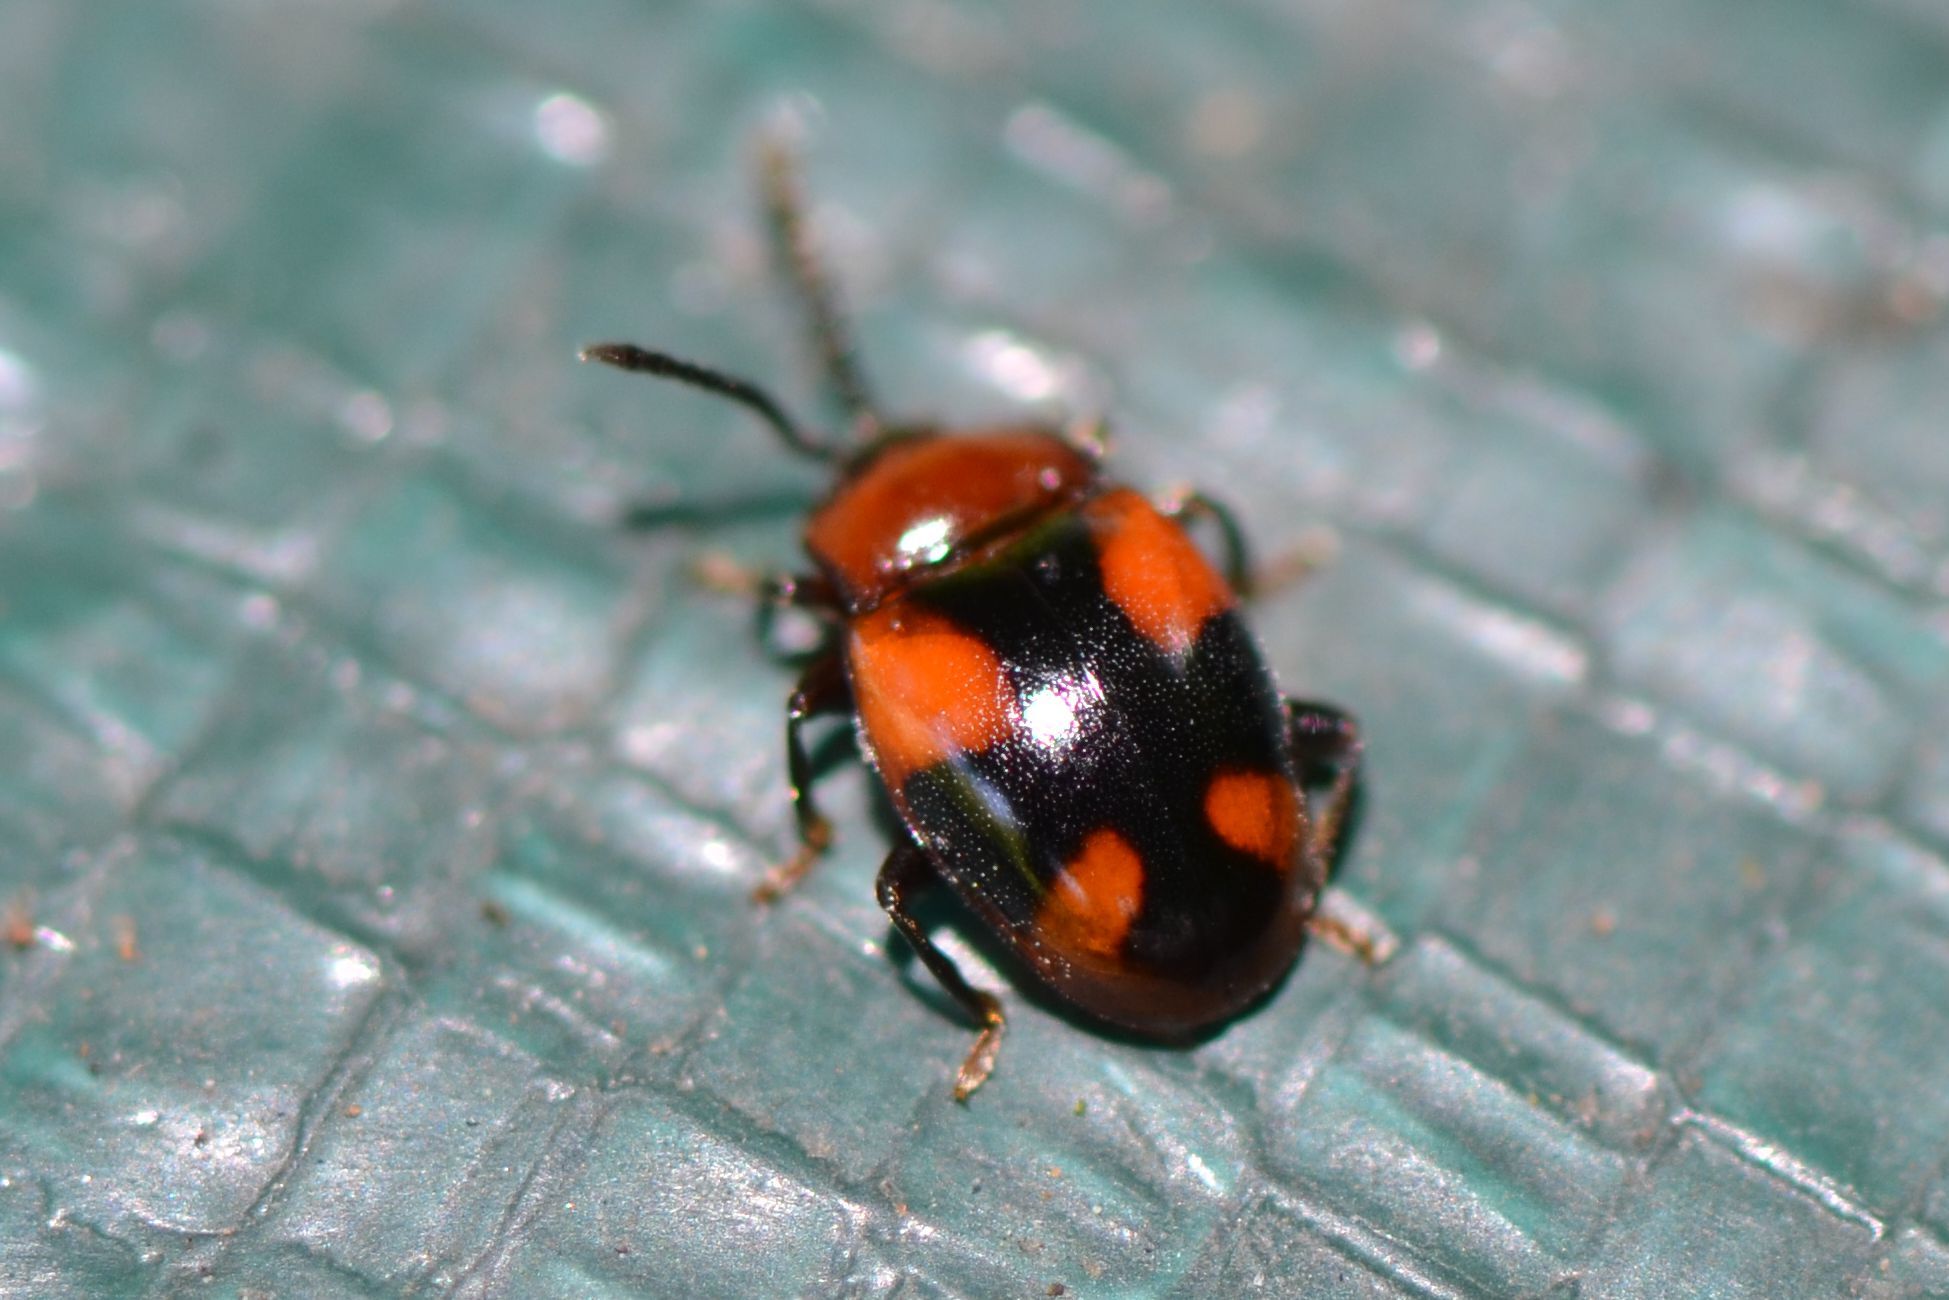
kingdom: Animalia
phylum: Arthropoda
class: Insecta
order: Coleoptera
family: Endomychidae
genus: Mycetina
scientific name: Mycetina cruciata
